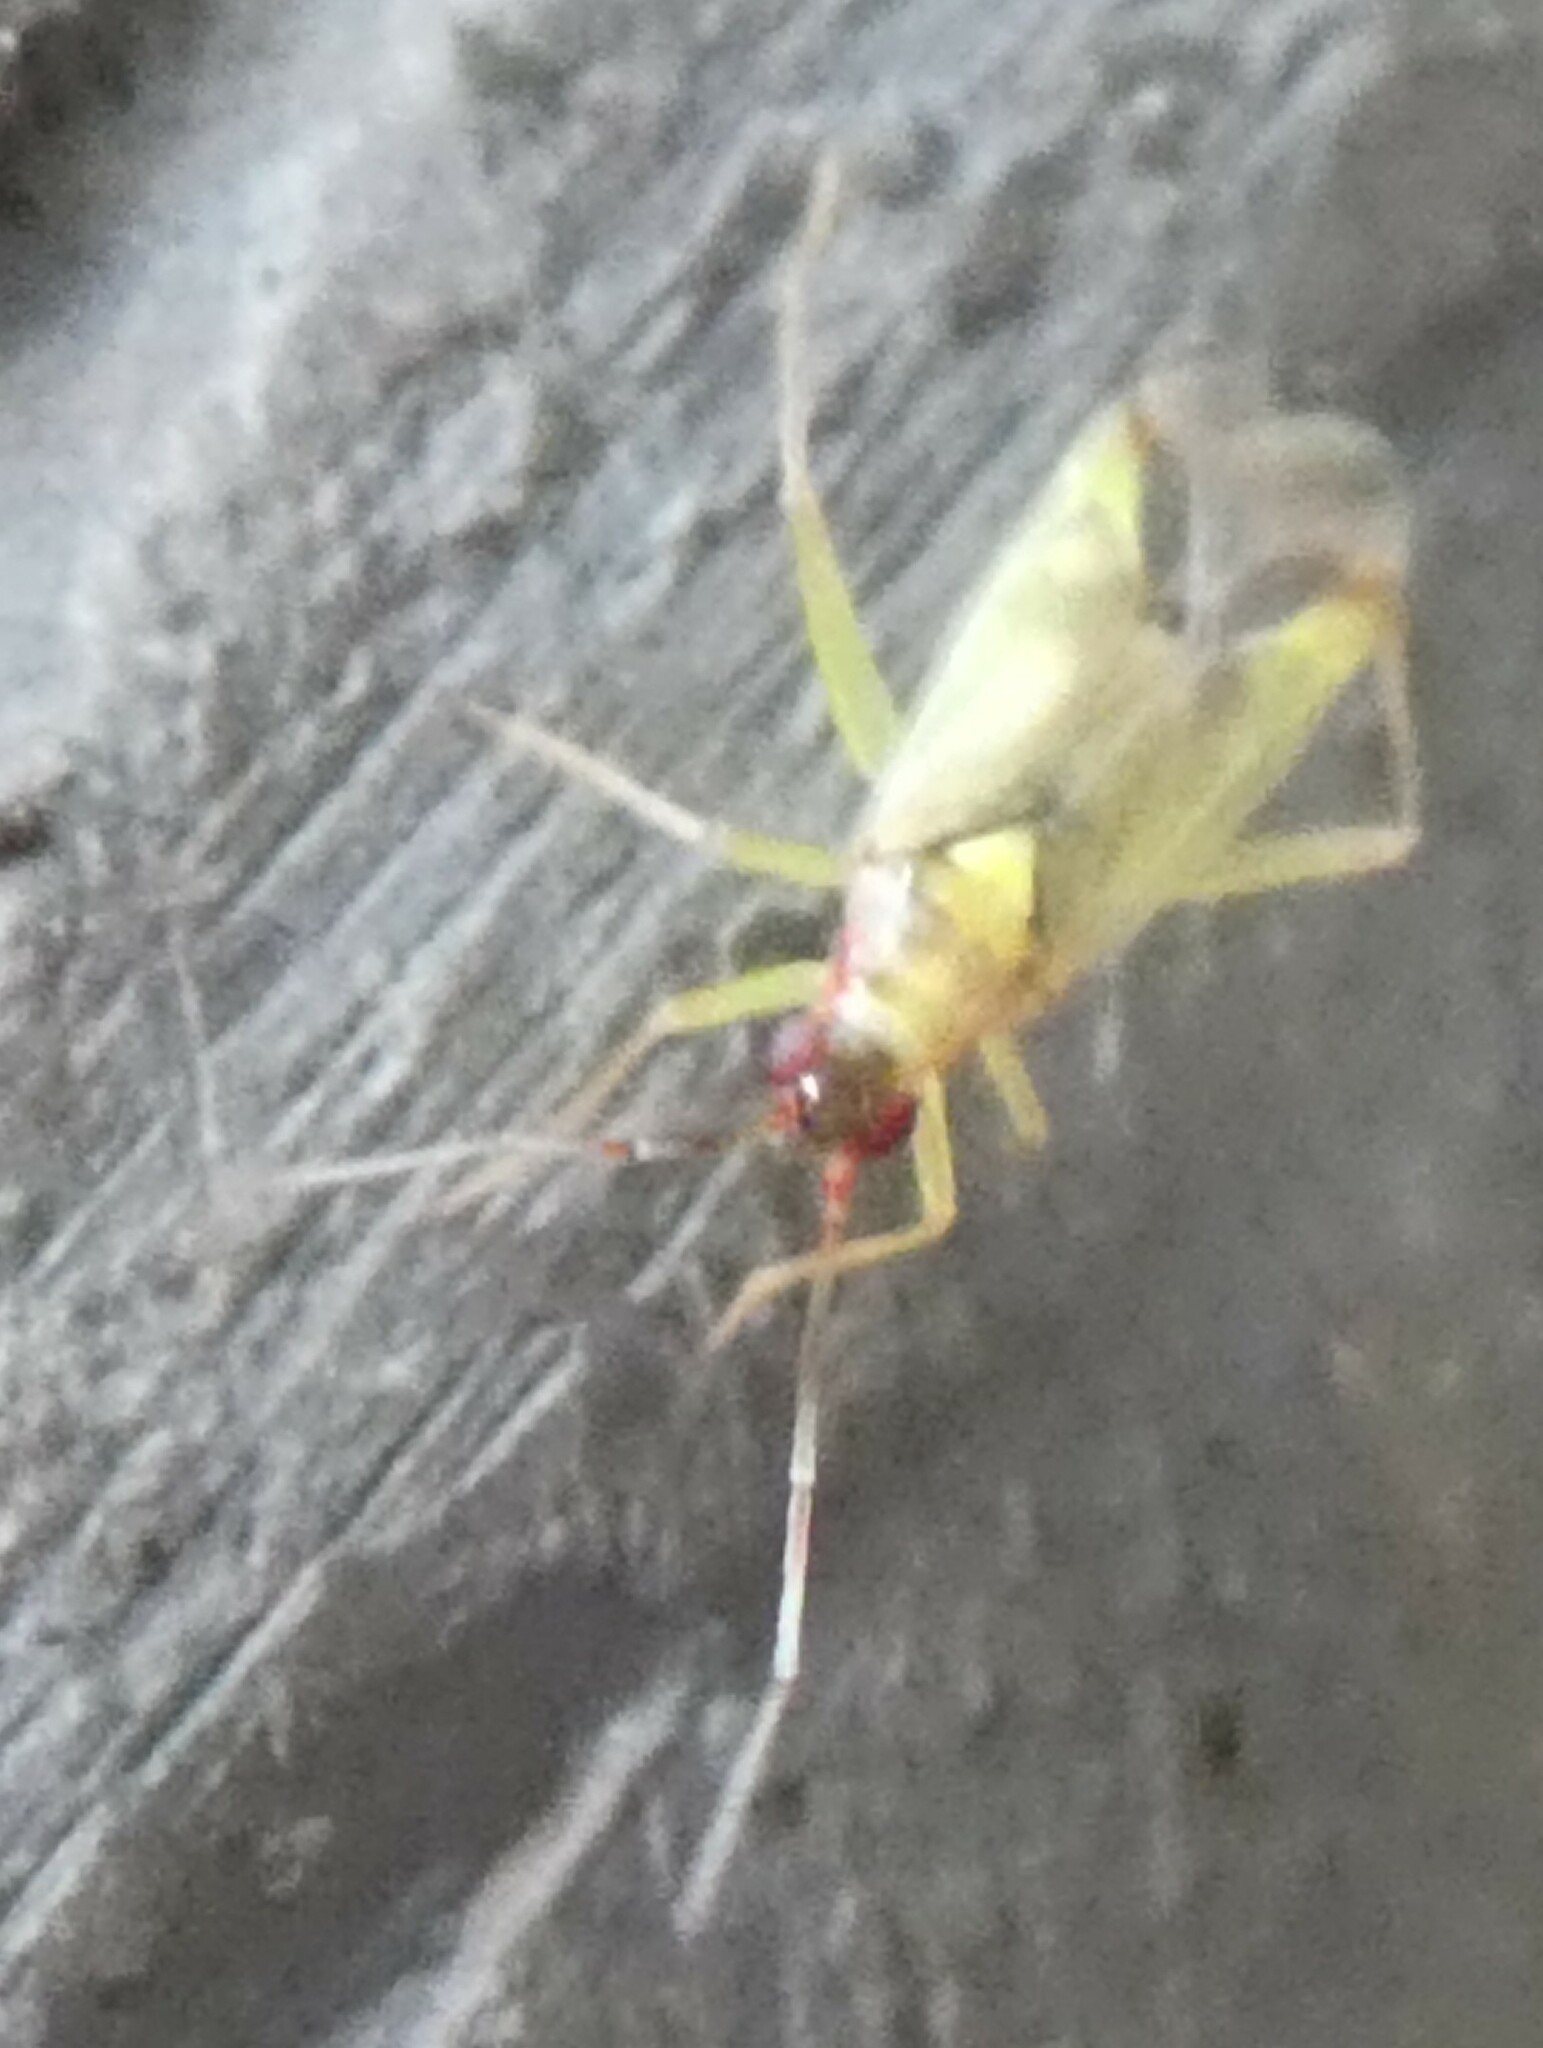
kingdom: Animalia
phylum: Arthropoda
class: Insecta
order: Hemiptera
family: Miridae
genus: Campyloneura
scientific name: Campyloneura virgula
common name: Predatory bug
